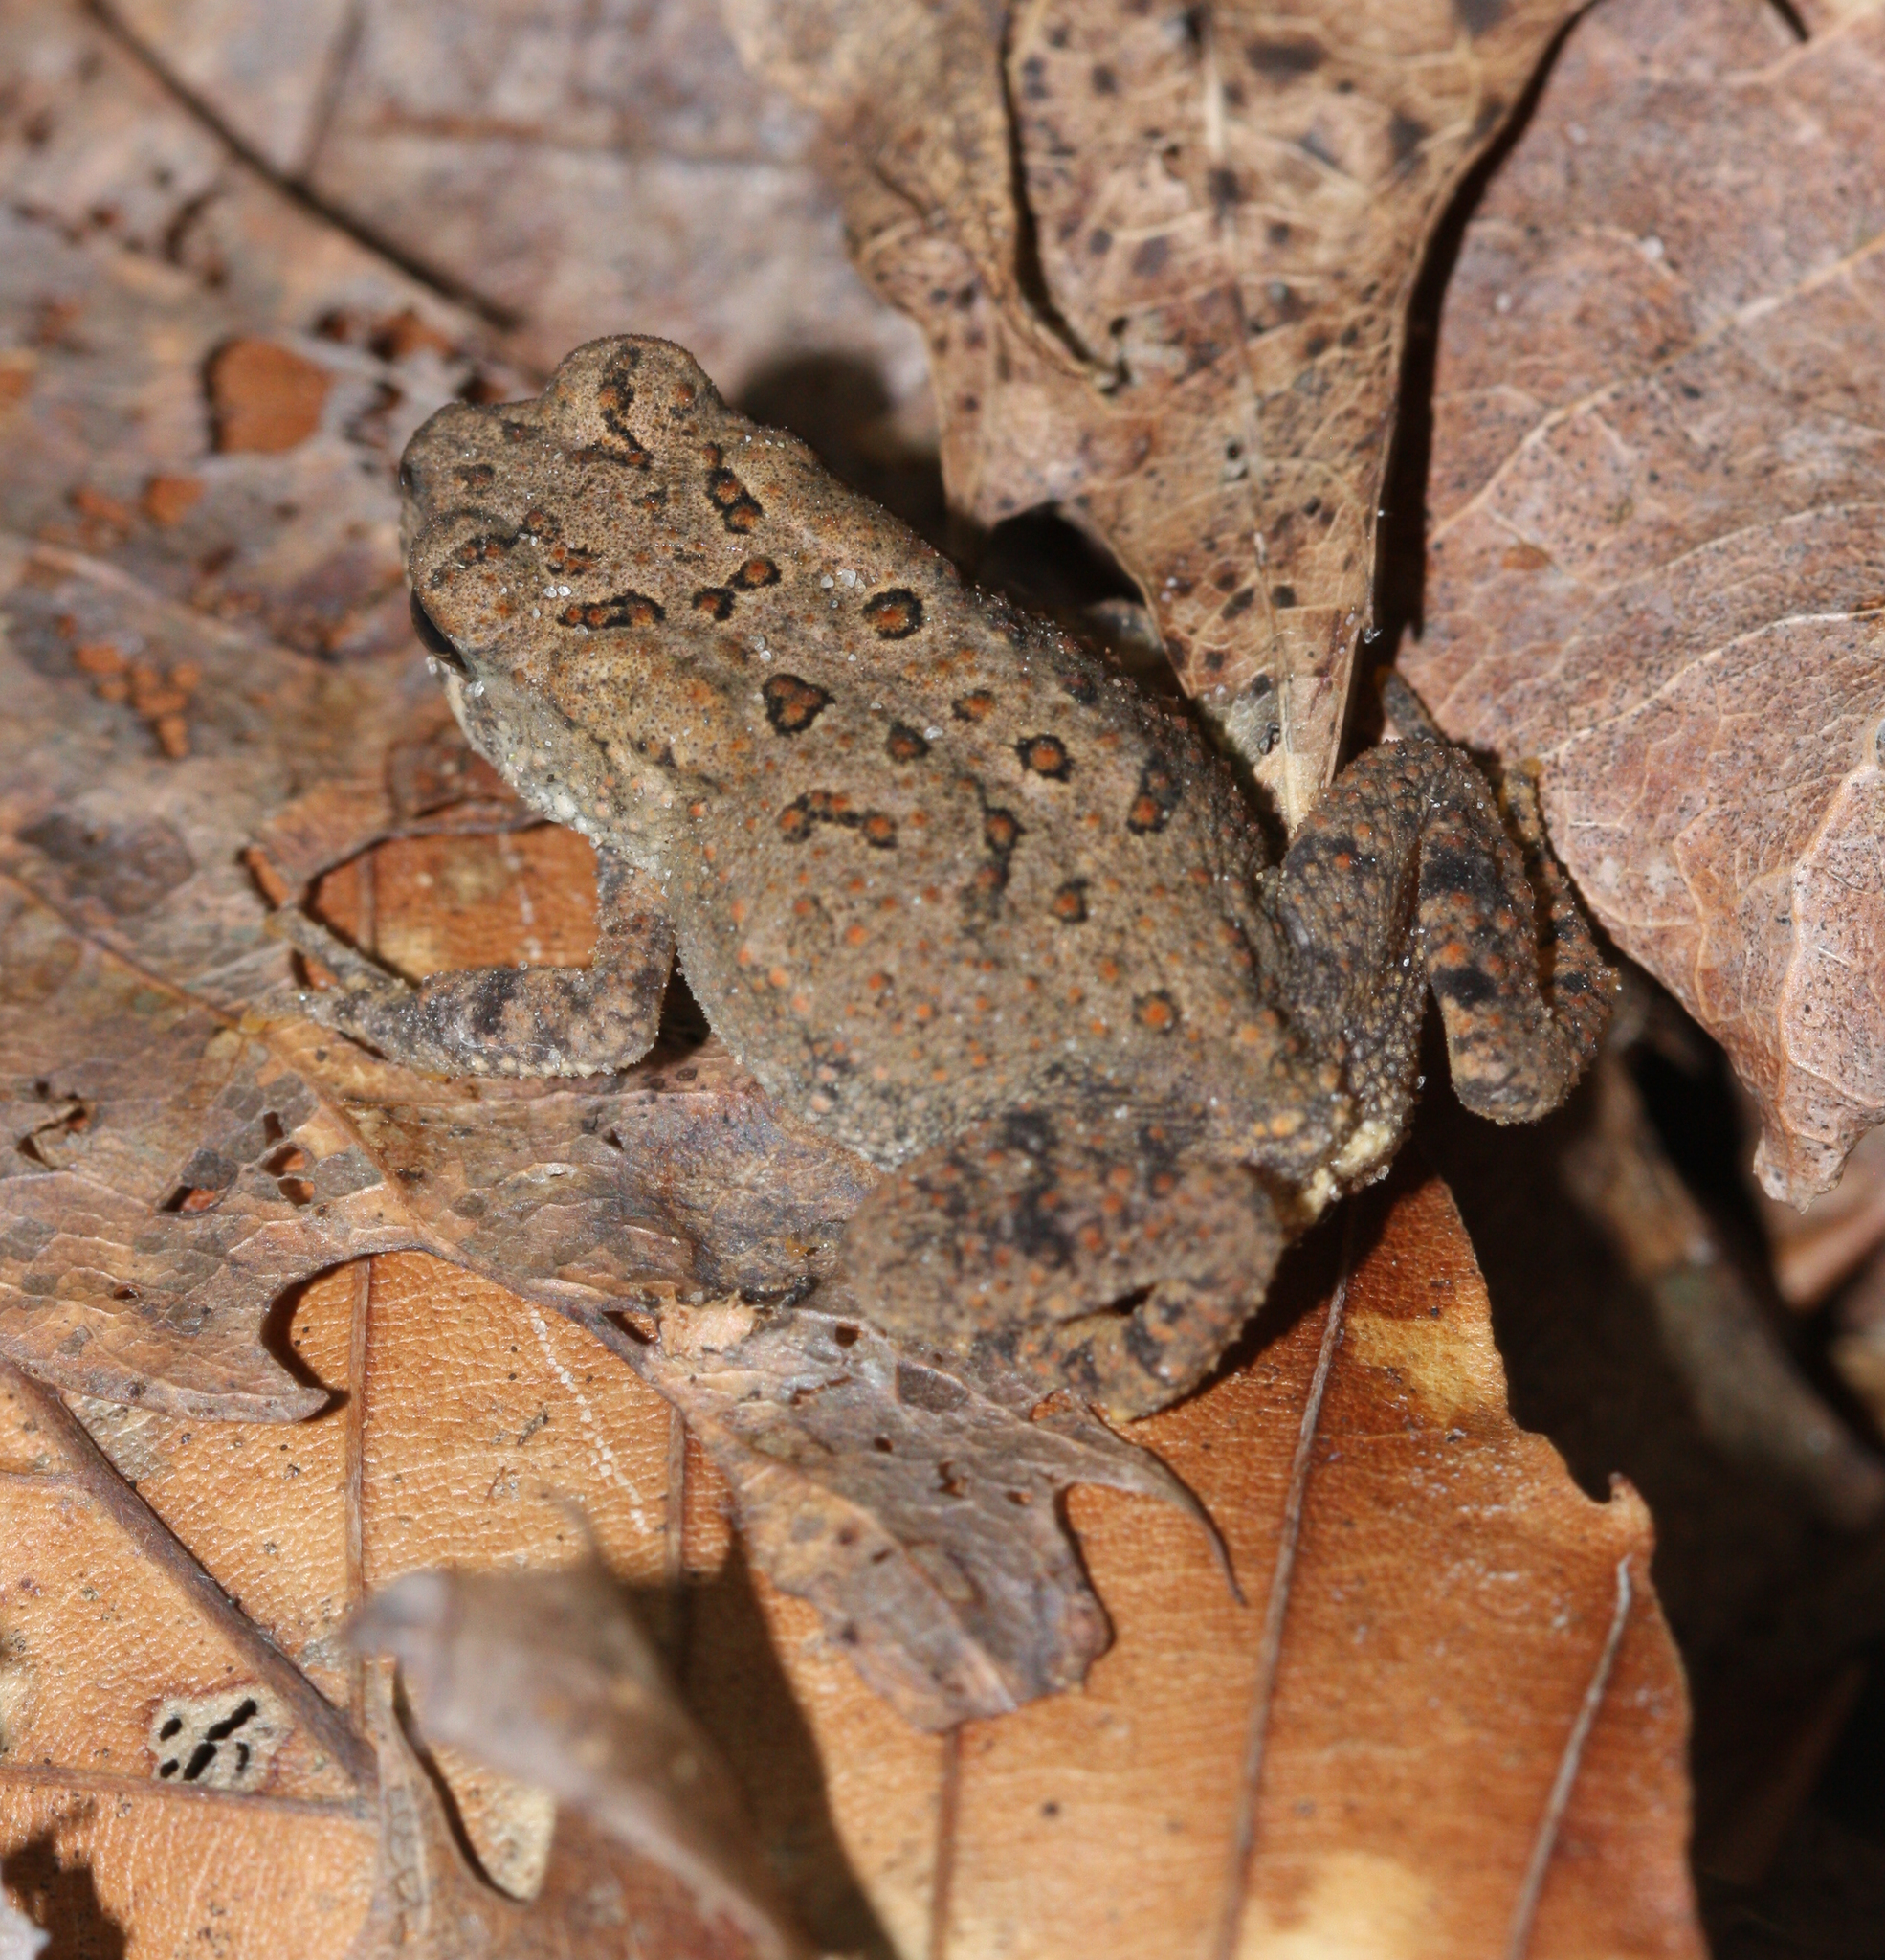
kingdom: Animalia
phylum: Chordata
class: Amphibia
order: Anura
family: Bufonidae
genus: Anaxyrus
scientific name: Anaxyrus americanus
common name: American toad
